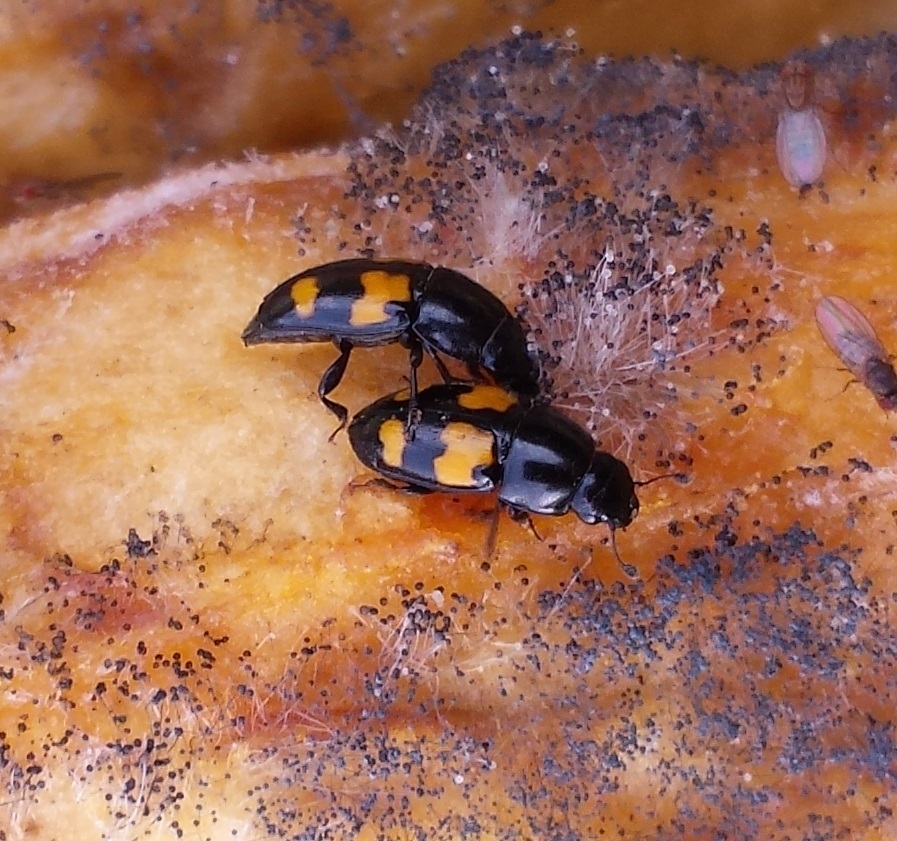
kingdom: Animalia
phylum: Arthropoda
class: Insecta
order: Coleoptera
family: Nitidulidae
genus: Glischrochilus
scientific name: Glischrochilus fasciatus
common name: Picnic beetle
